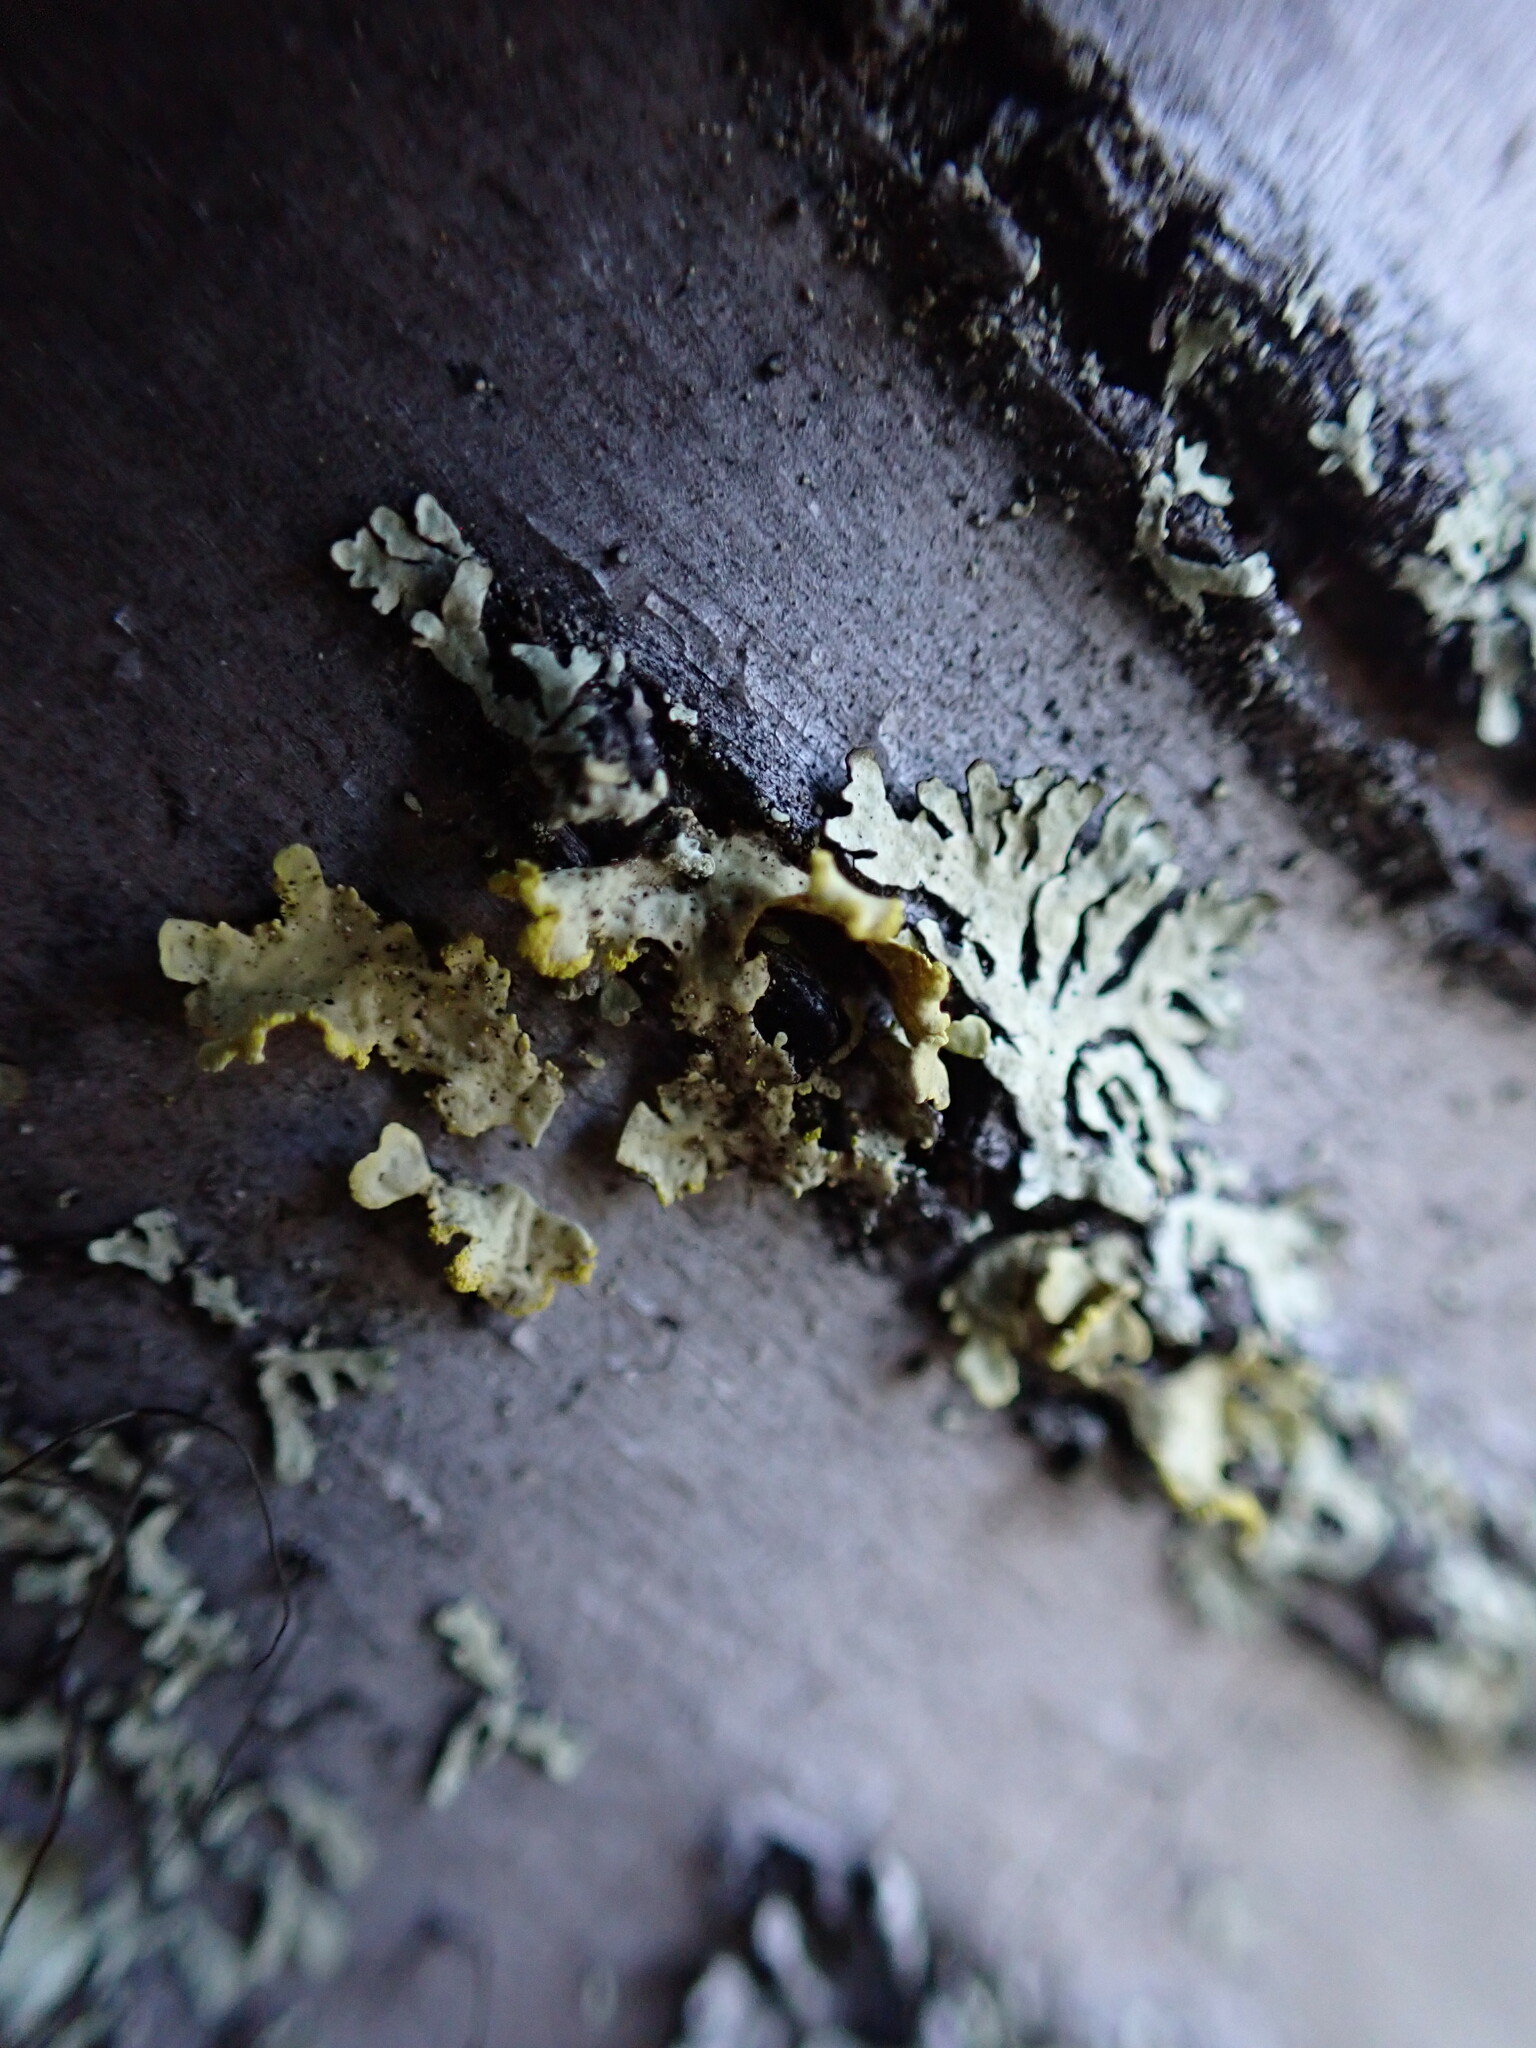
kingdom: Fungi
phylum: Ascomycota
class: Lecanoromycetes
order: Lecanorales
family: Parmeliaceae
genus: Vulpicida
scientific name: Vulpicida pinastri
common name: Powdered sunshine lichen
